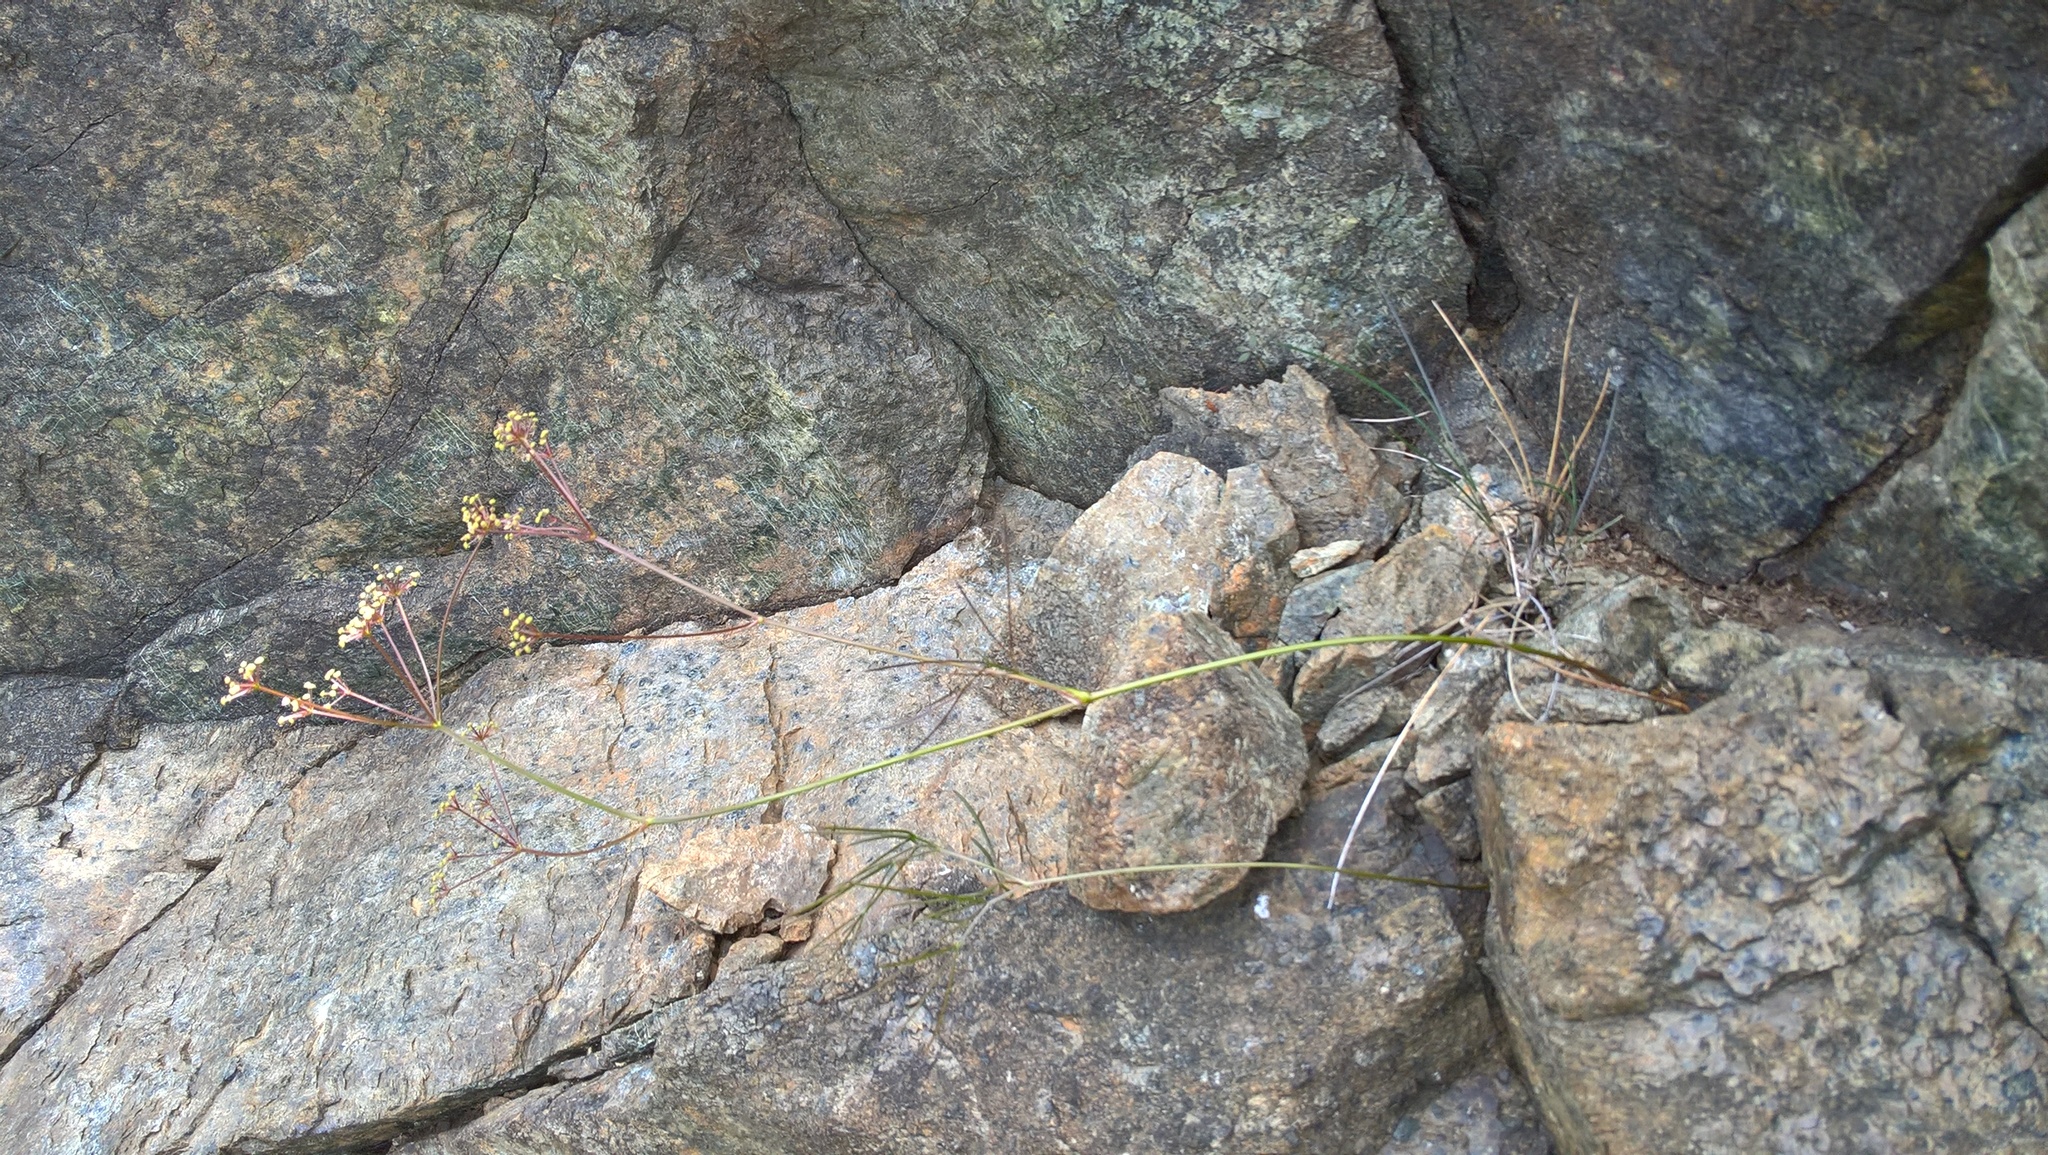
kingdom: Plantae
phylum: Tracheophyta
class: Magnoliopsida
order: Apiales
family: Apiaceae
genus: Anisotome
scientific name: Anisotome filifolia
